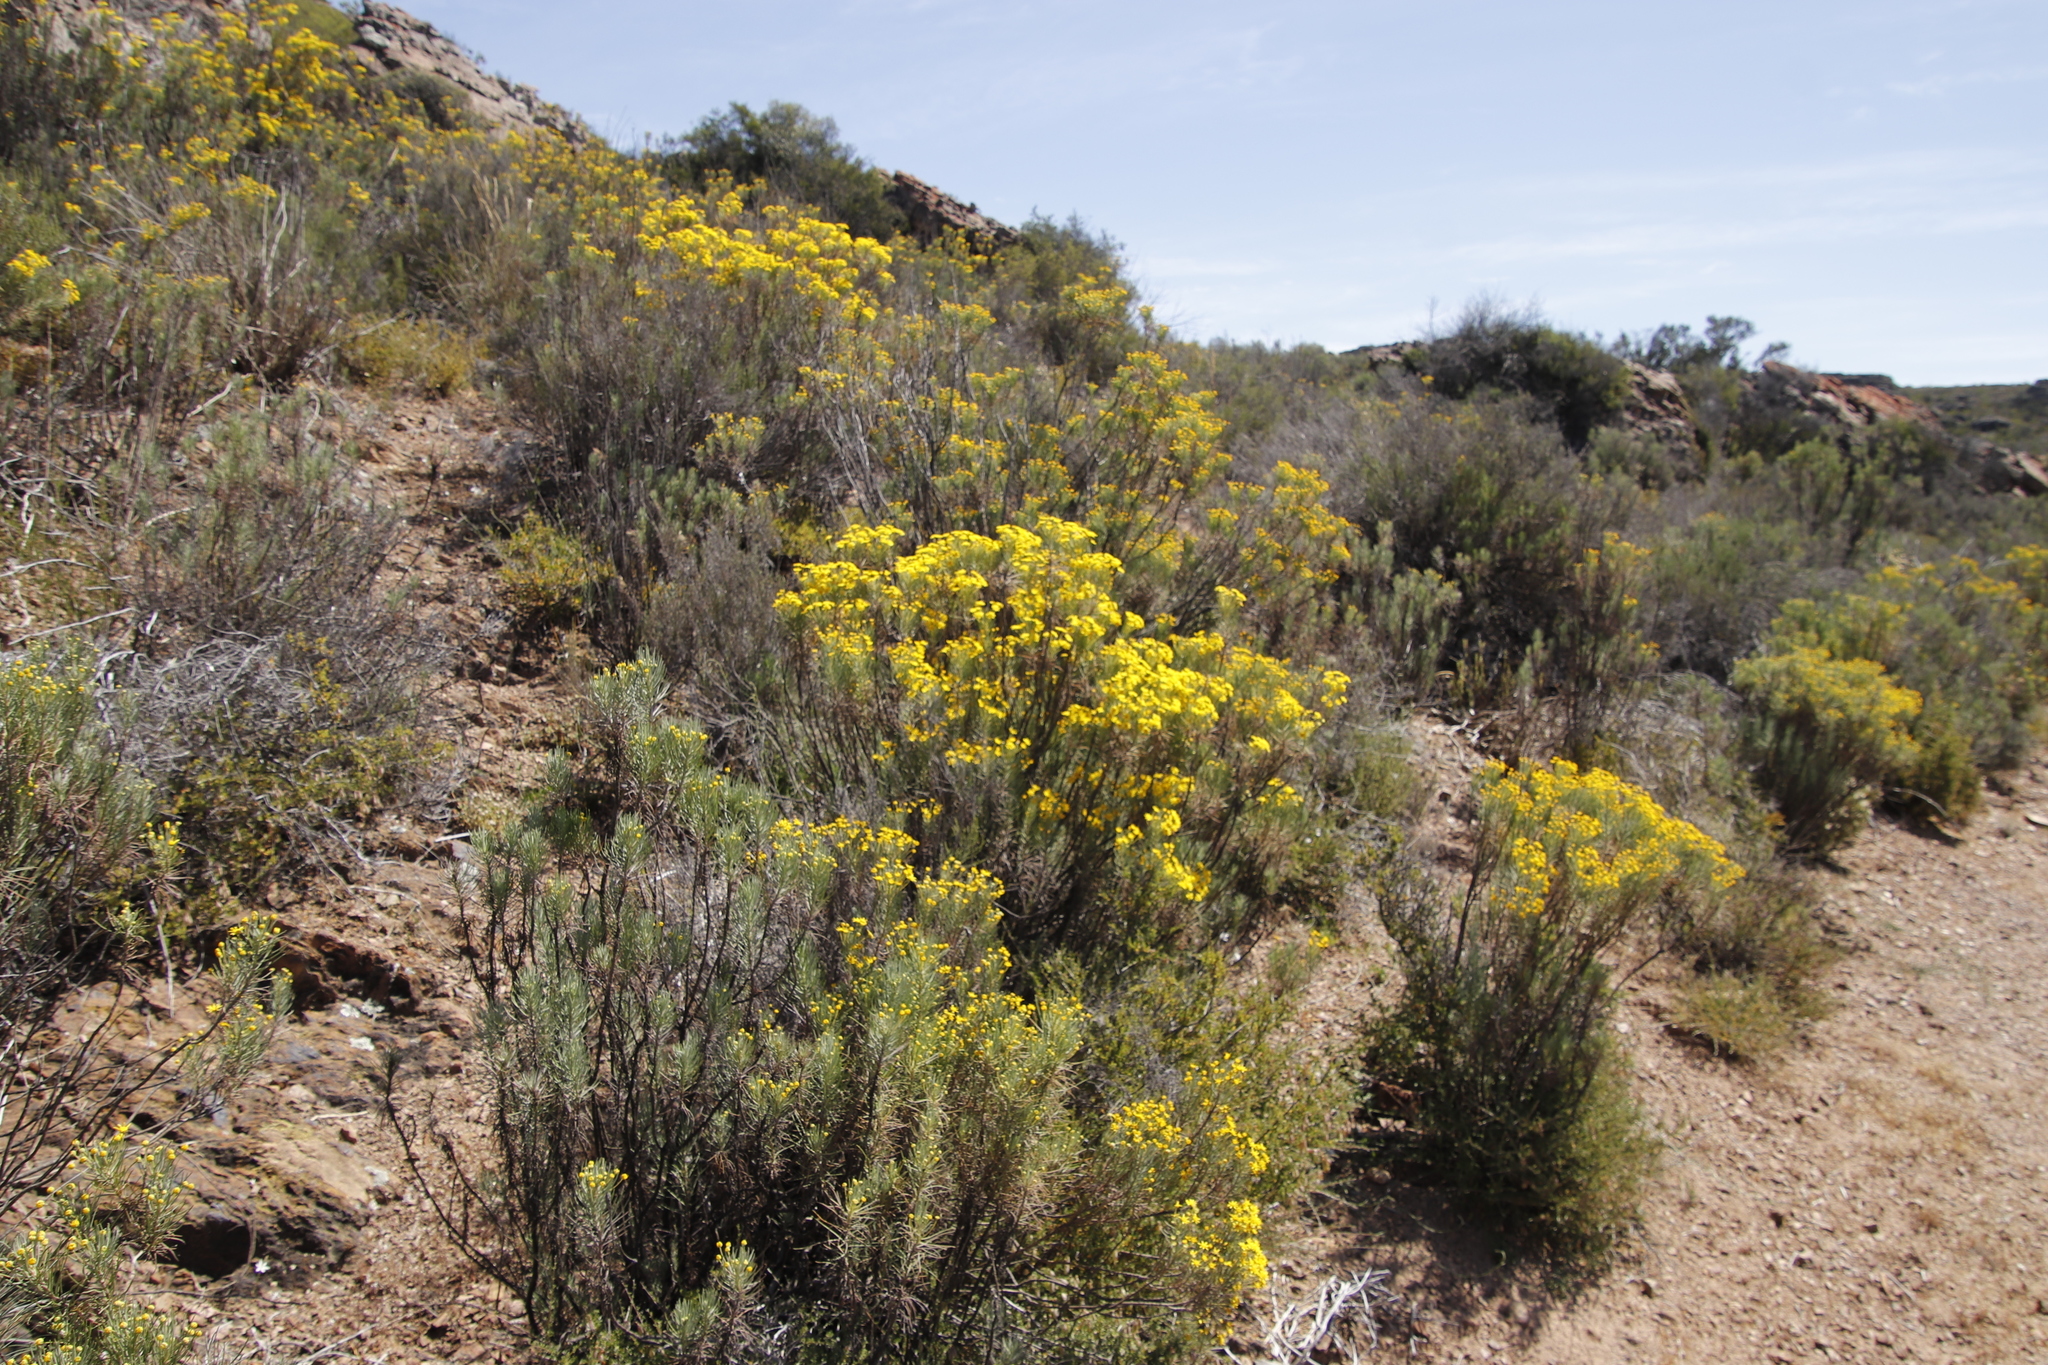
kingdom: Plantae
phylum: Tracheophyta
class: Magnoliopsida
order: Asterales
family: Asteraceae
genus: Euryops
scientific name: Euryops lateriflorus
